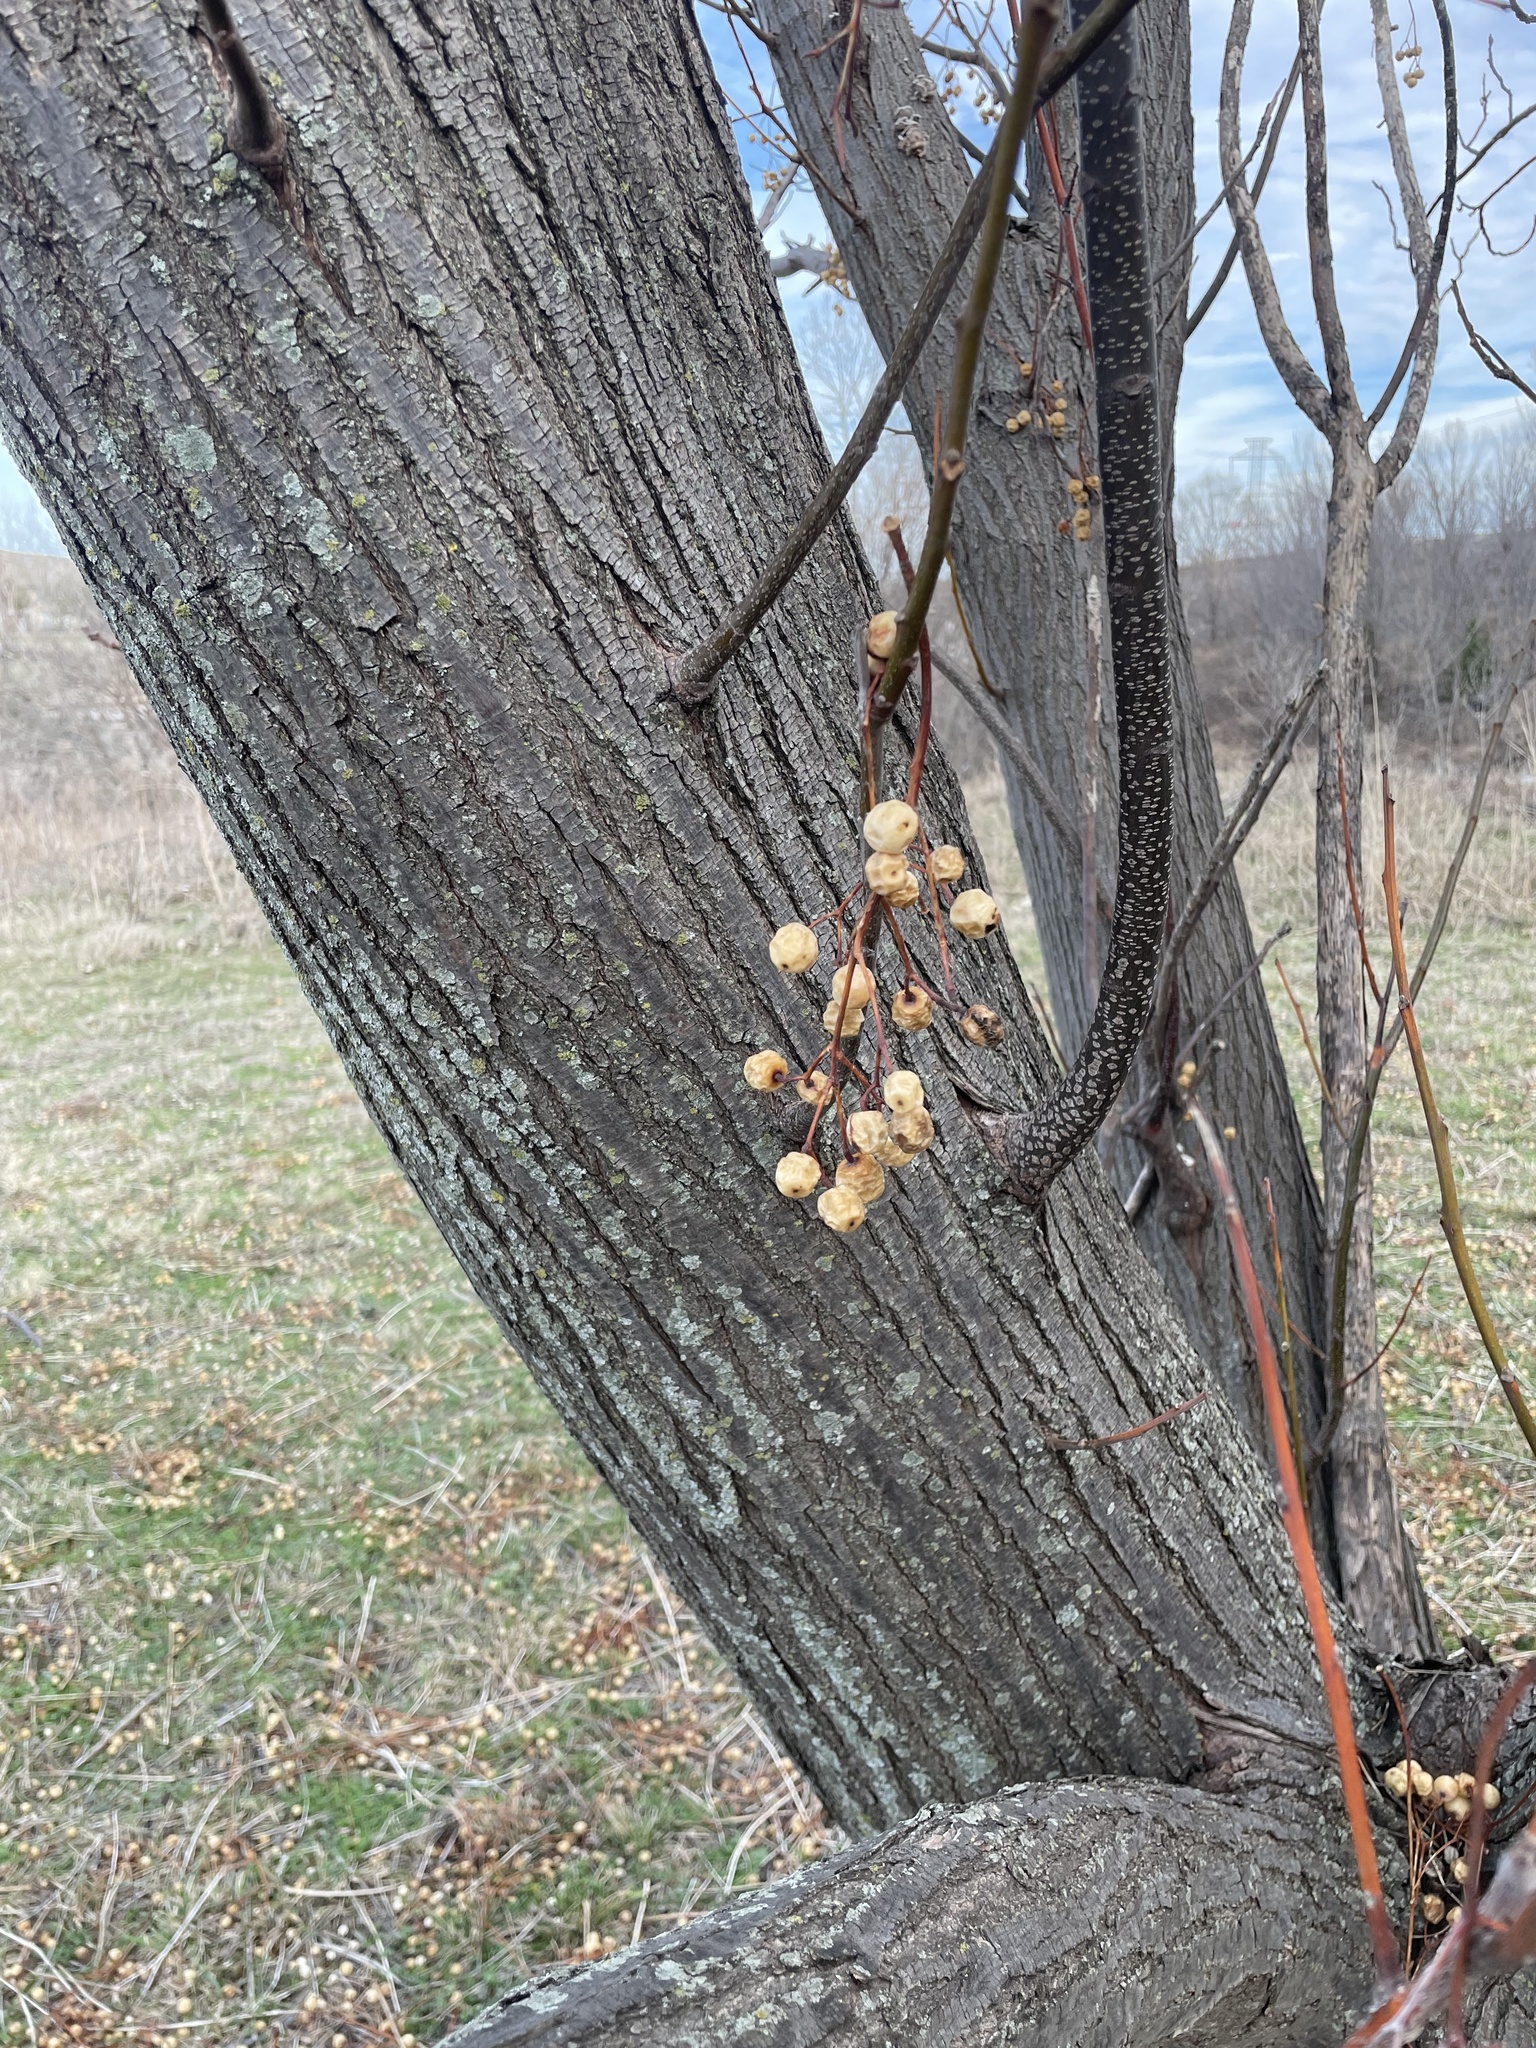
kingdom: Plantae
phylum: Tracheophyta
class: Magnoliopsida
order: Sapindales
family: Meliaceae
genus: Melia
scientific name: Melia azedarach
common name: Chinaberrytree
